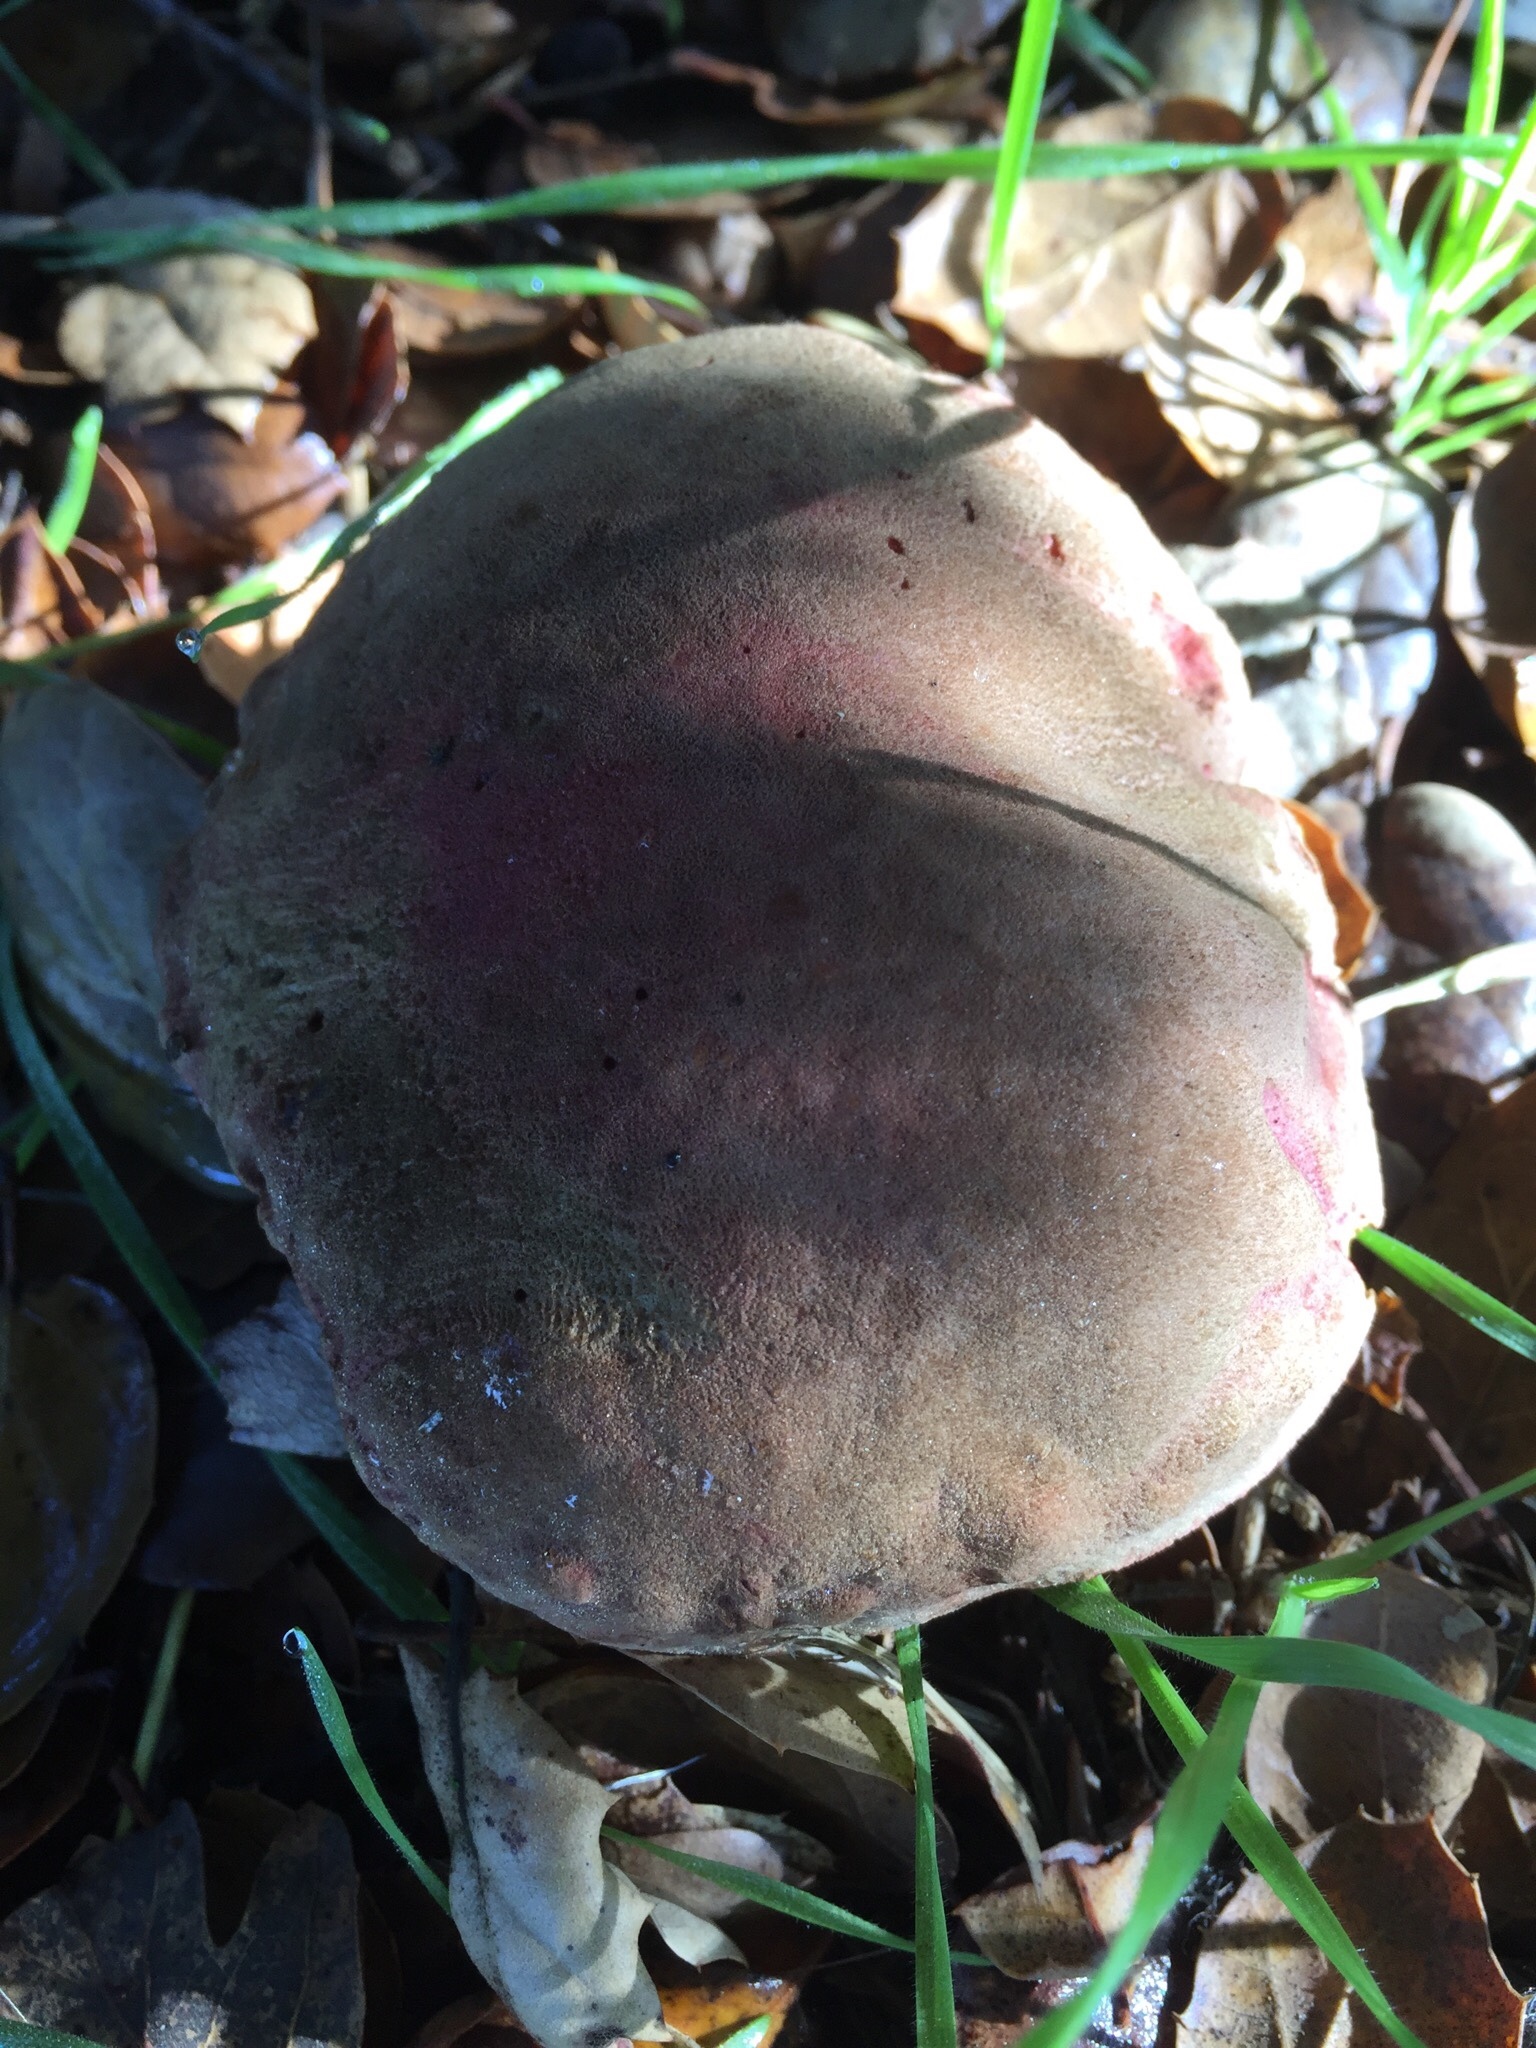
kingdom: Fungi
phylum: Basidiomycota
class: Agaricomycetes
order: Boletales
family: Boletaceae
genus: Xerocomellus
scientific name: Xerocomellus dryophilus
